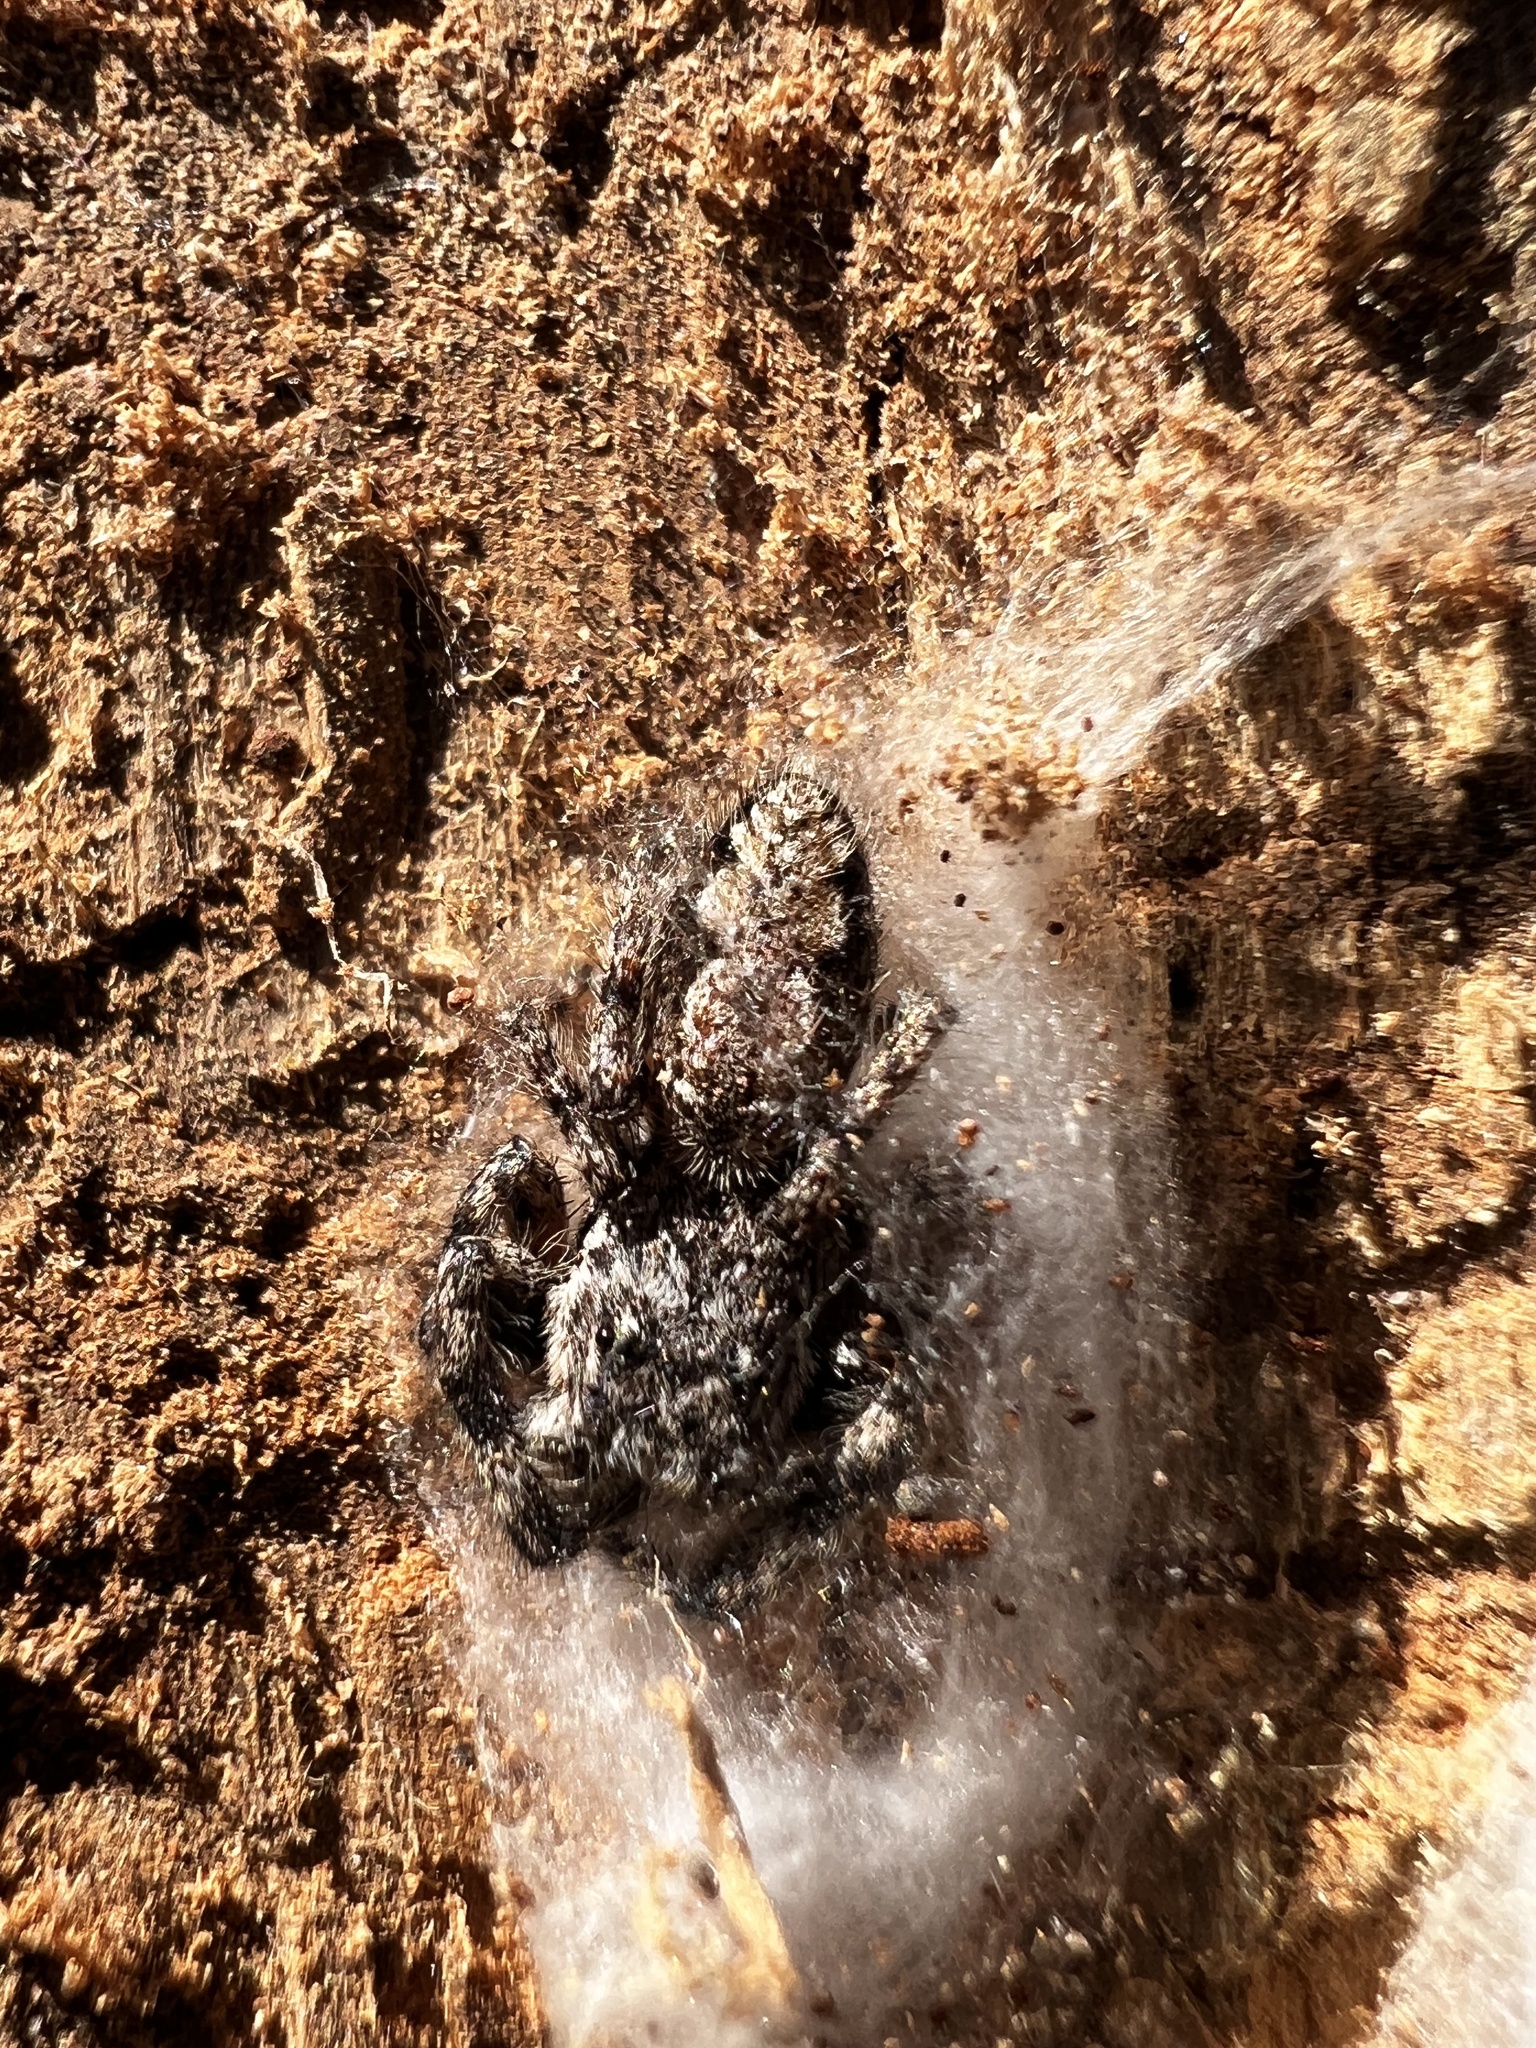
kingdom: Animalia
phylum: Arthropoda
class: Arachnida
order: Araneae
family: Salticidae
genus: Platycryptus
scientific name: Platycryptus undatus
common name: Tan jumping spider
